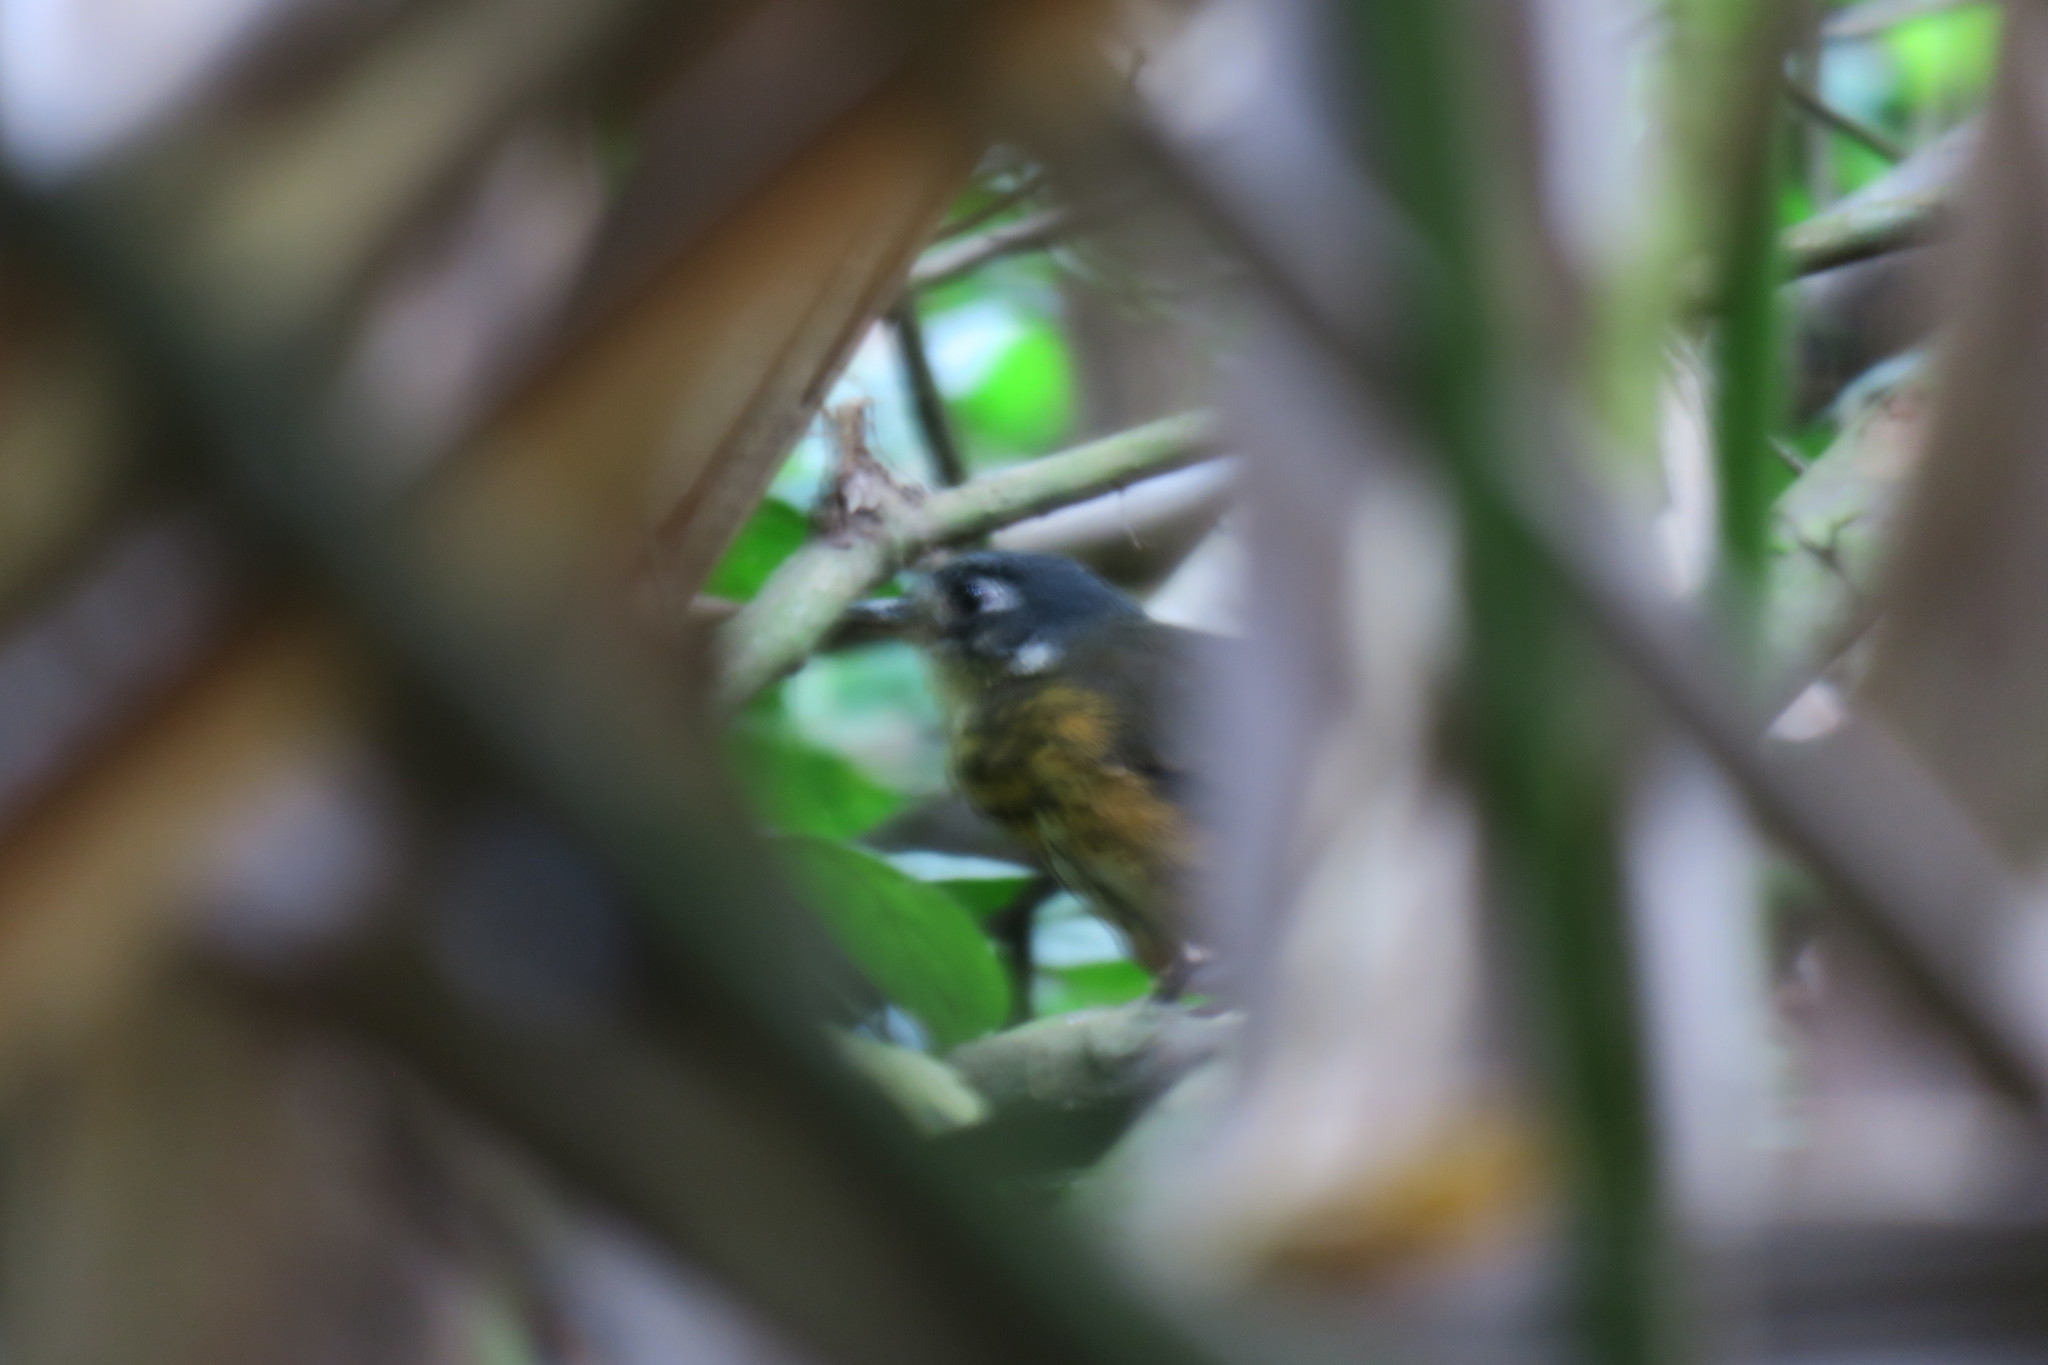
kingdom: Animalia
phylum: Chordata
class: Aves
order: Passeriformes
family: Grallariidae
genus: Hylopezus
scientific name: Hylopezus fulviventris
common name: White-lored antpitta
